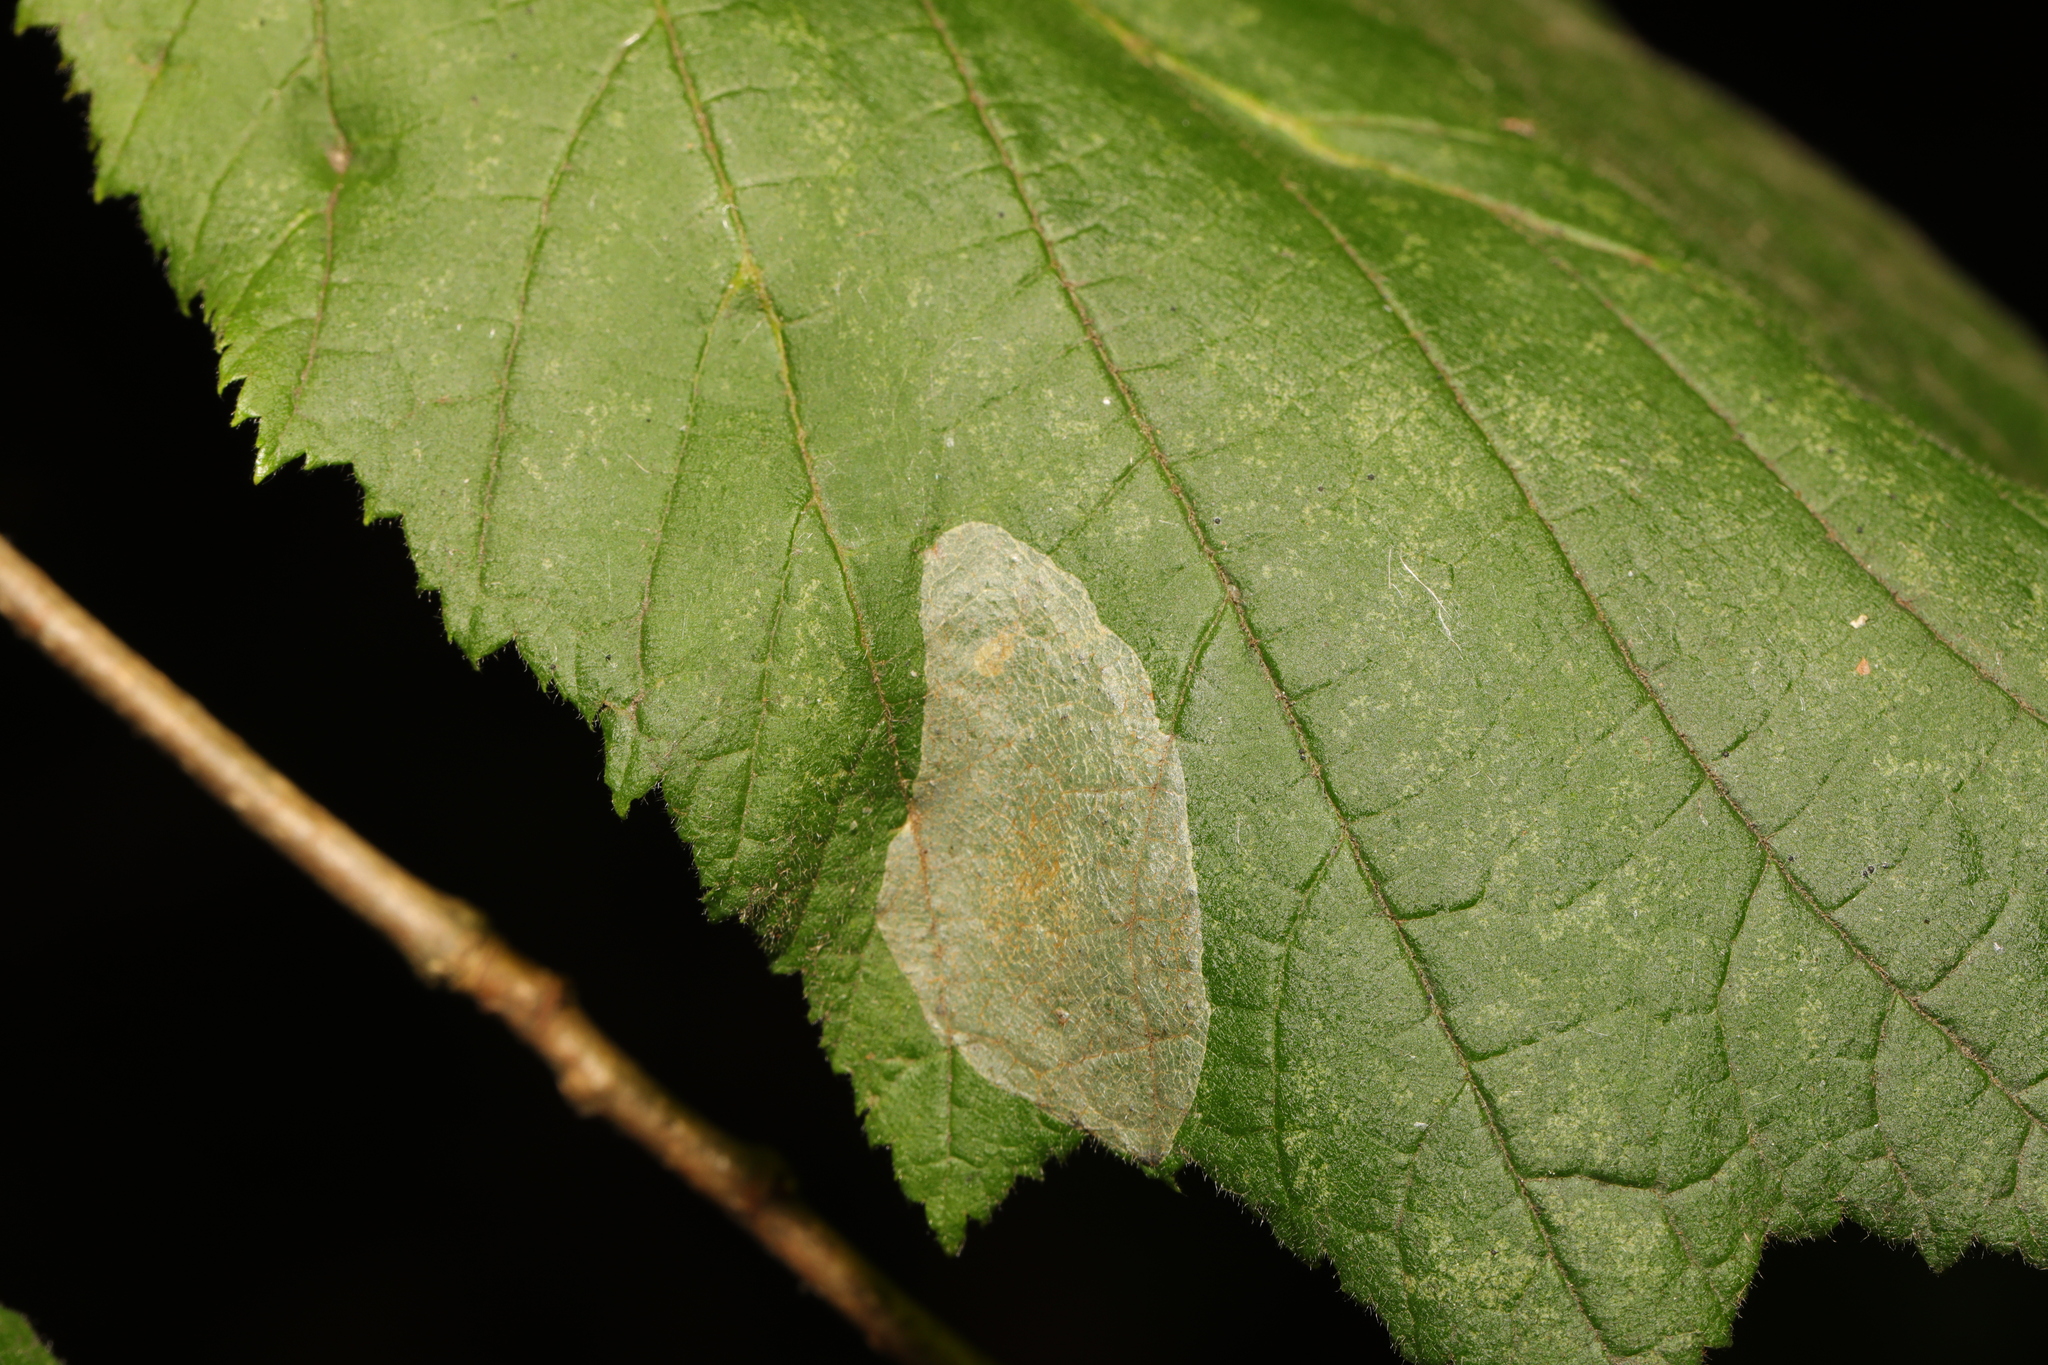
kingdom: Animalia
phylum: Arthropoda
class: Insecta
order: Lepidoptera
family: Gracillariidae
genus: Phyllonorycter
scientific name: Phyllonorycter coryli
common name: Nut-leaf blister moth
